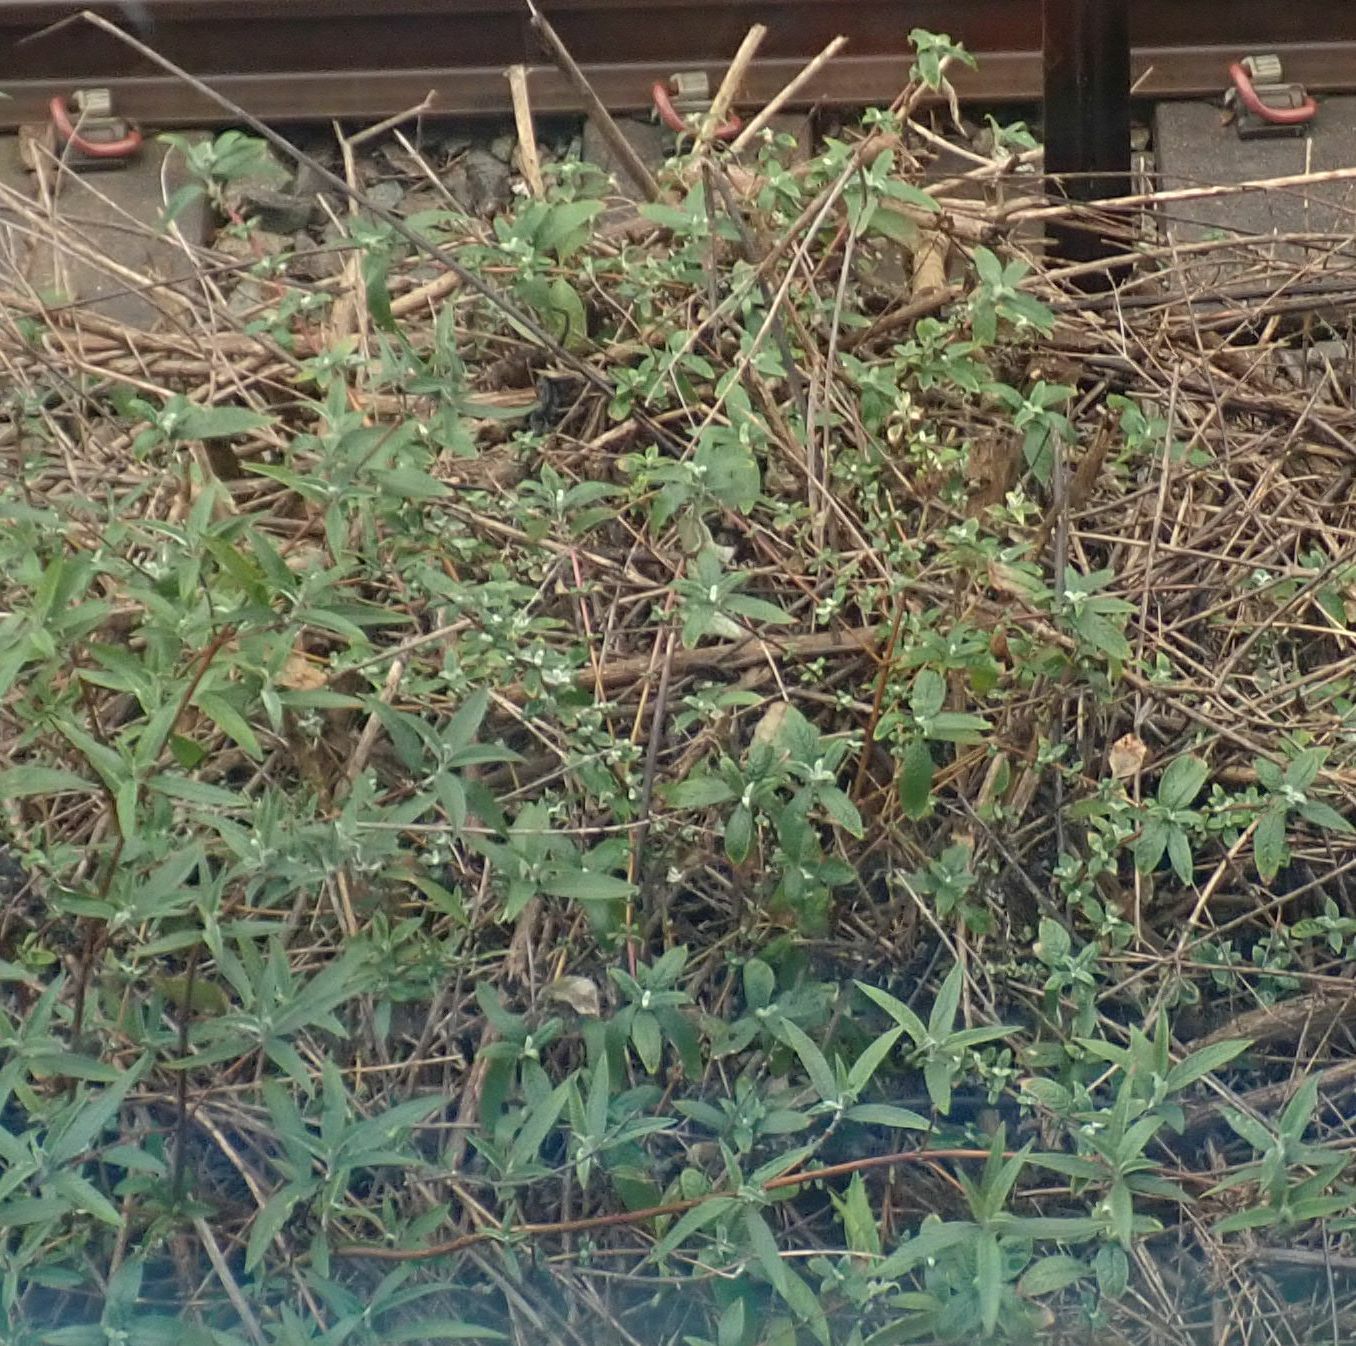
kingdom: Plantae
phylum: Tracheophyta
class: Magnoliopsida
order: Lamiales
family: Scrophulariaceae
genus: Buddleja
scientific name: Buddleja davidii
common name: Butterfly-bush
